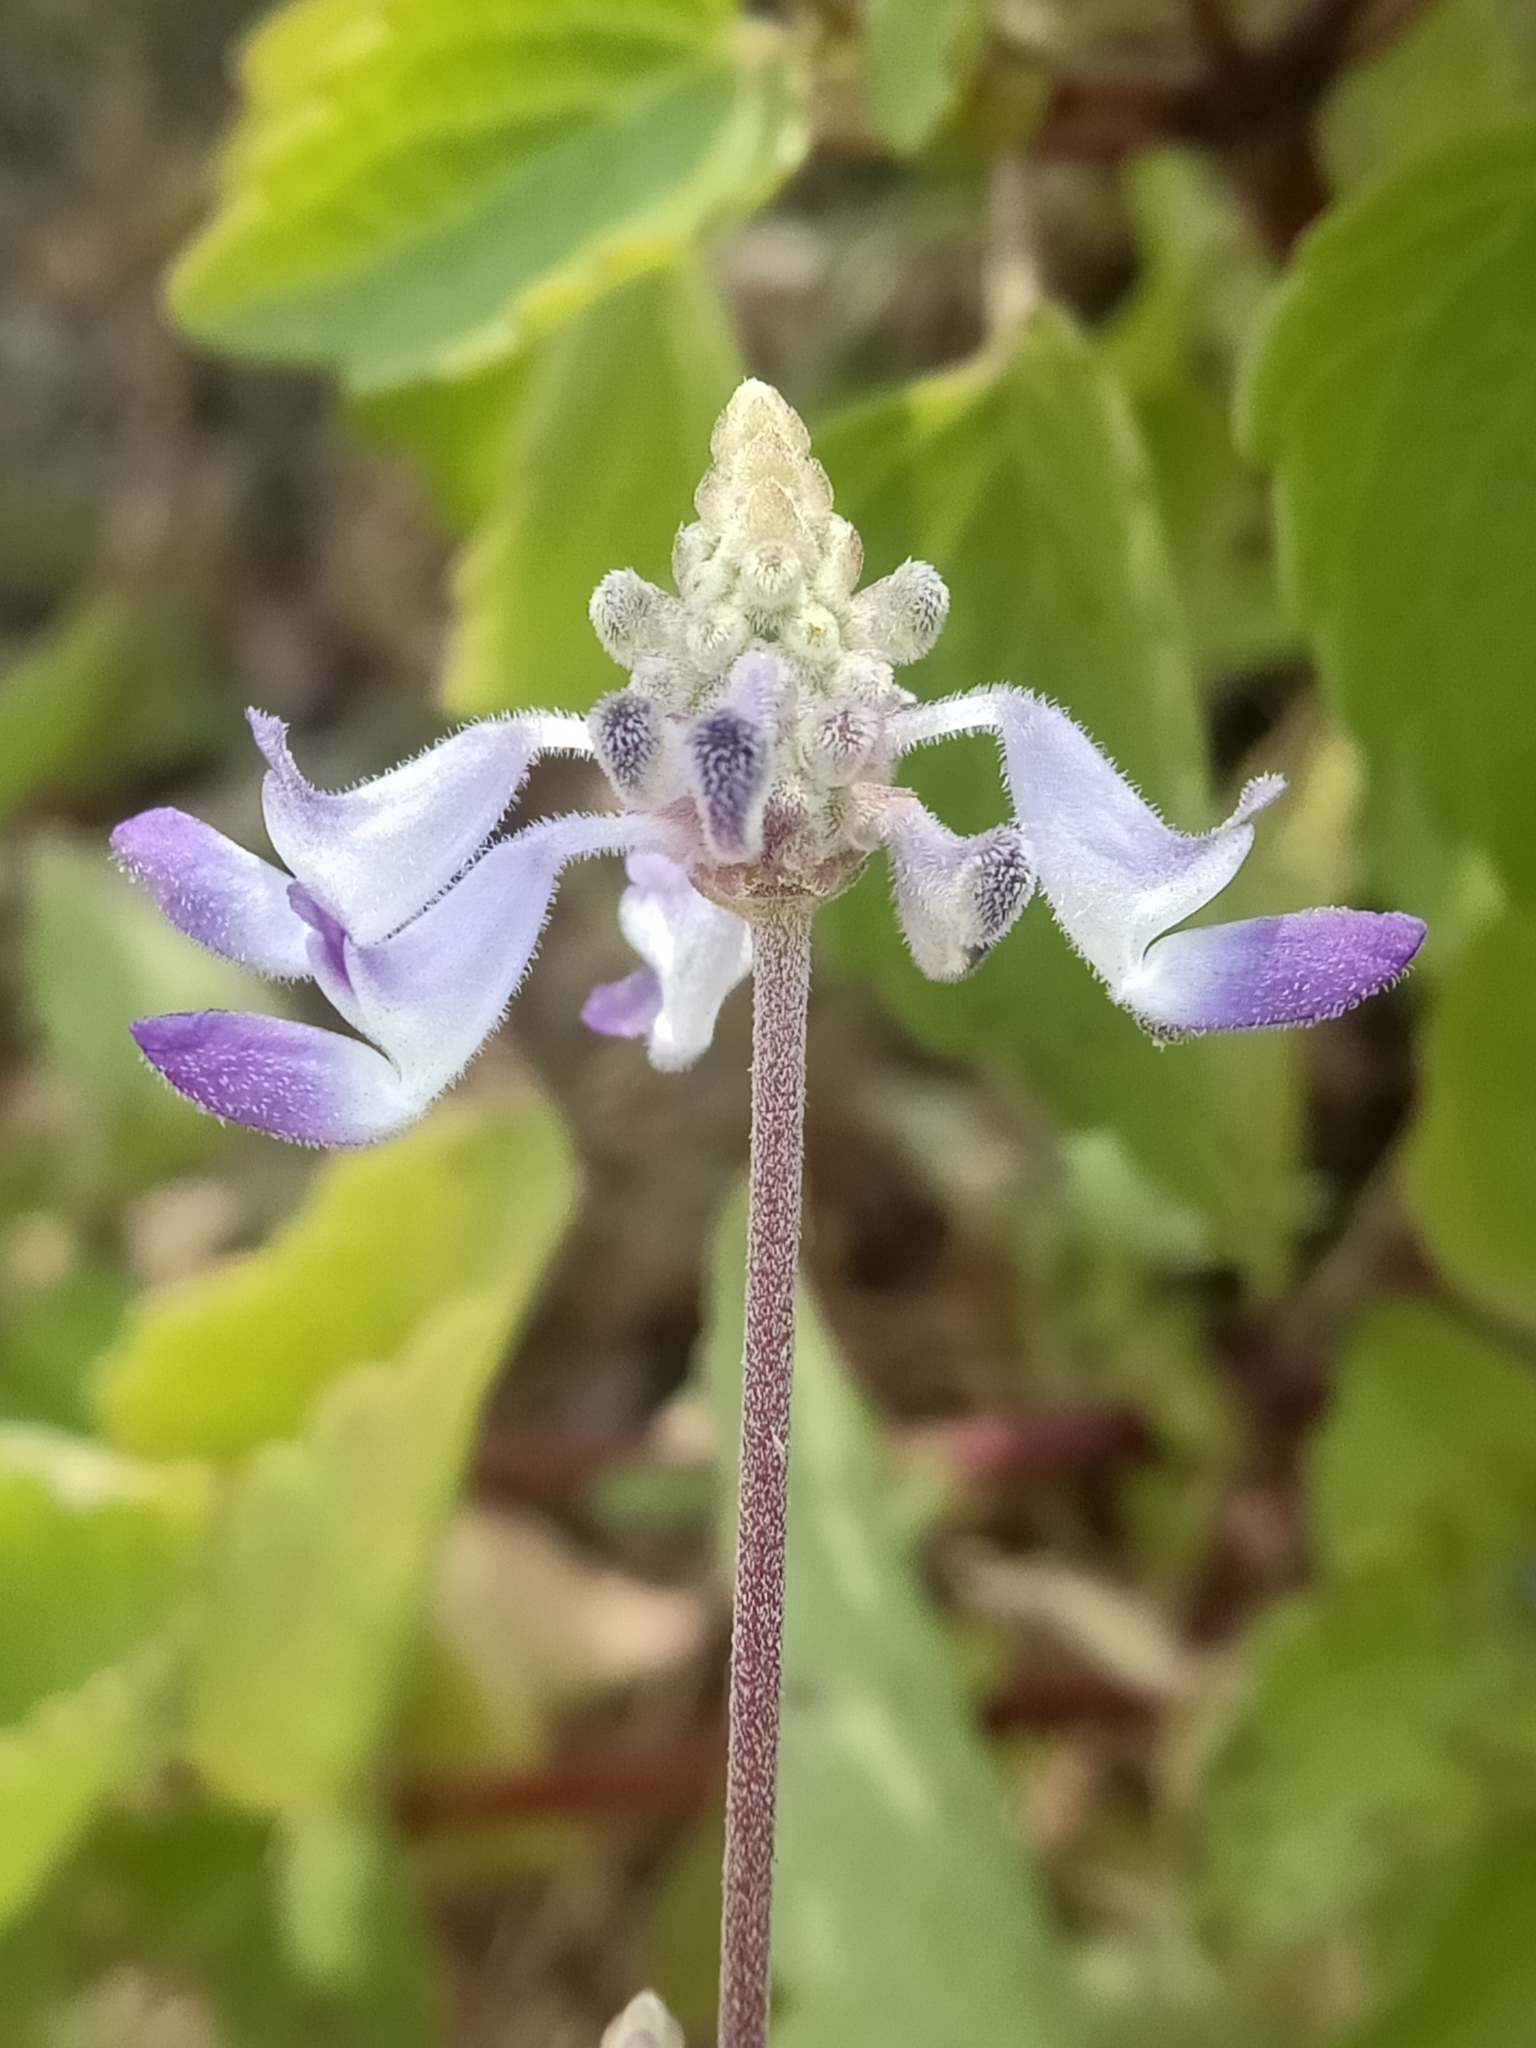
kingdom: Plantae
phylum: Tracheophyta
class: Magnoliopsida
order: Lamiales
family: Lamiaceae
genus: Coleus
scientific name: Coleus strobilifer
